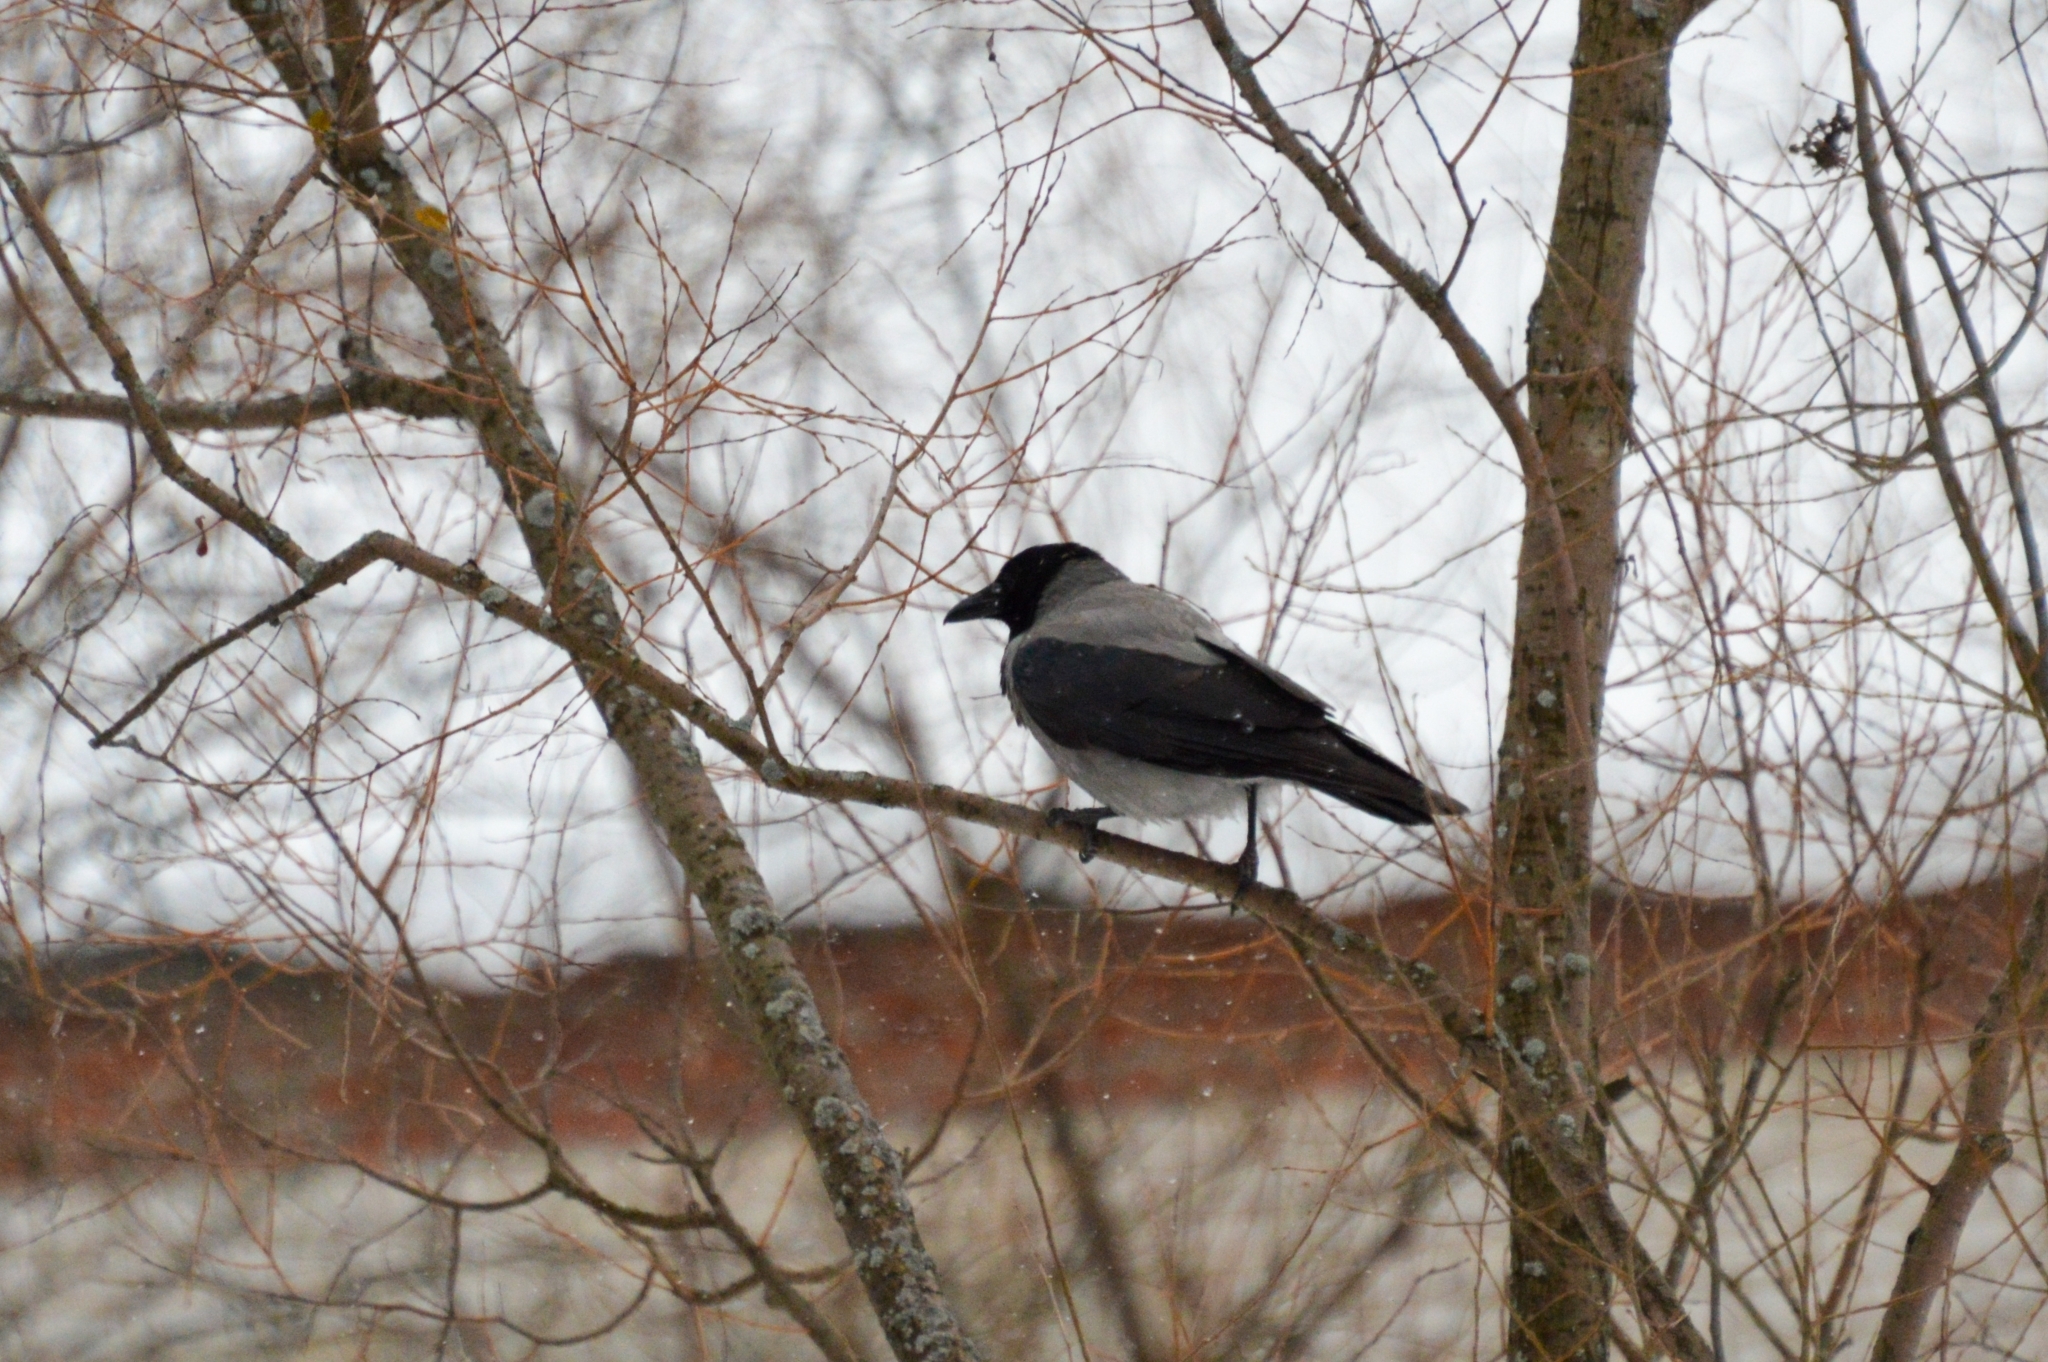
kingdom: Animalia
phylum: Chordata
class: Aves
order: Passeriformes
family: Corvidae
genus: Corvus
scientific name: Corvus cornix
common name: Hooded crow
